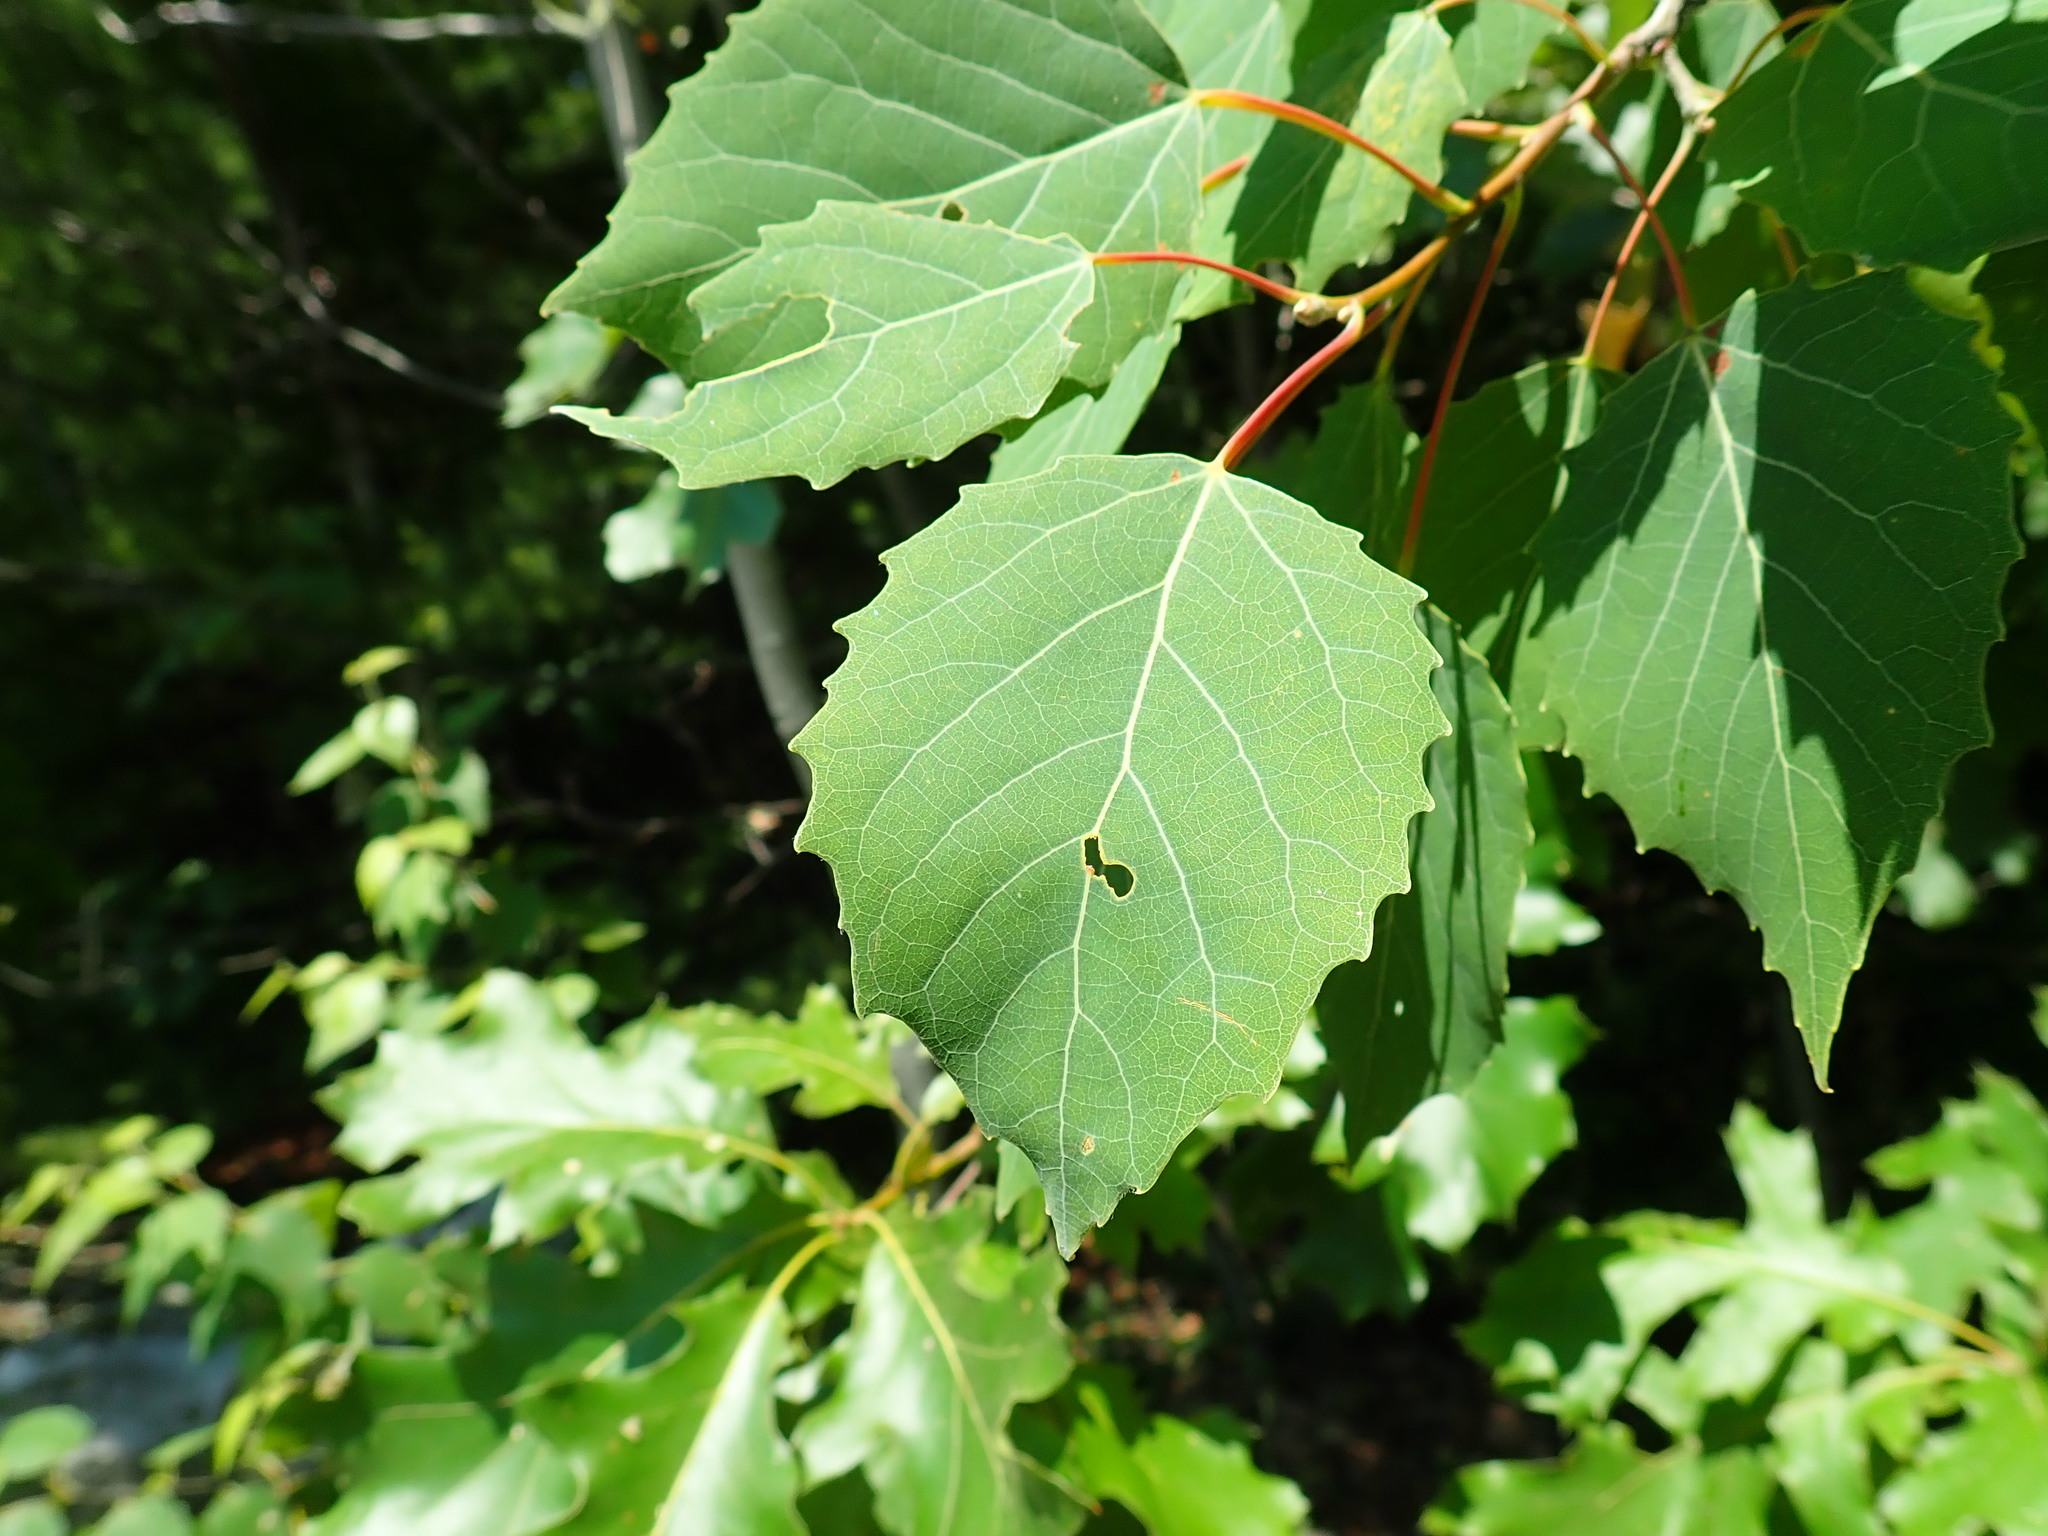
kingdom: Plantae
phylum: Tracheophyta
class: Magnoliopsida
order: Malpighiales
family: Salicaceae
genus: Populus
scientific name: Populus grandidentata
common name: Bigtooth aspen
